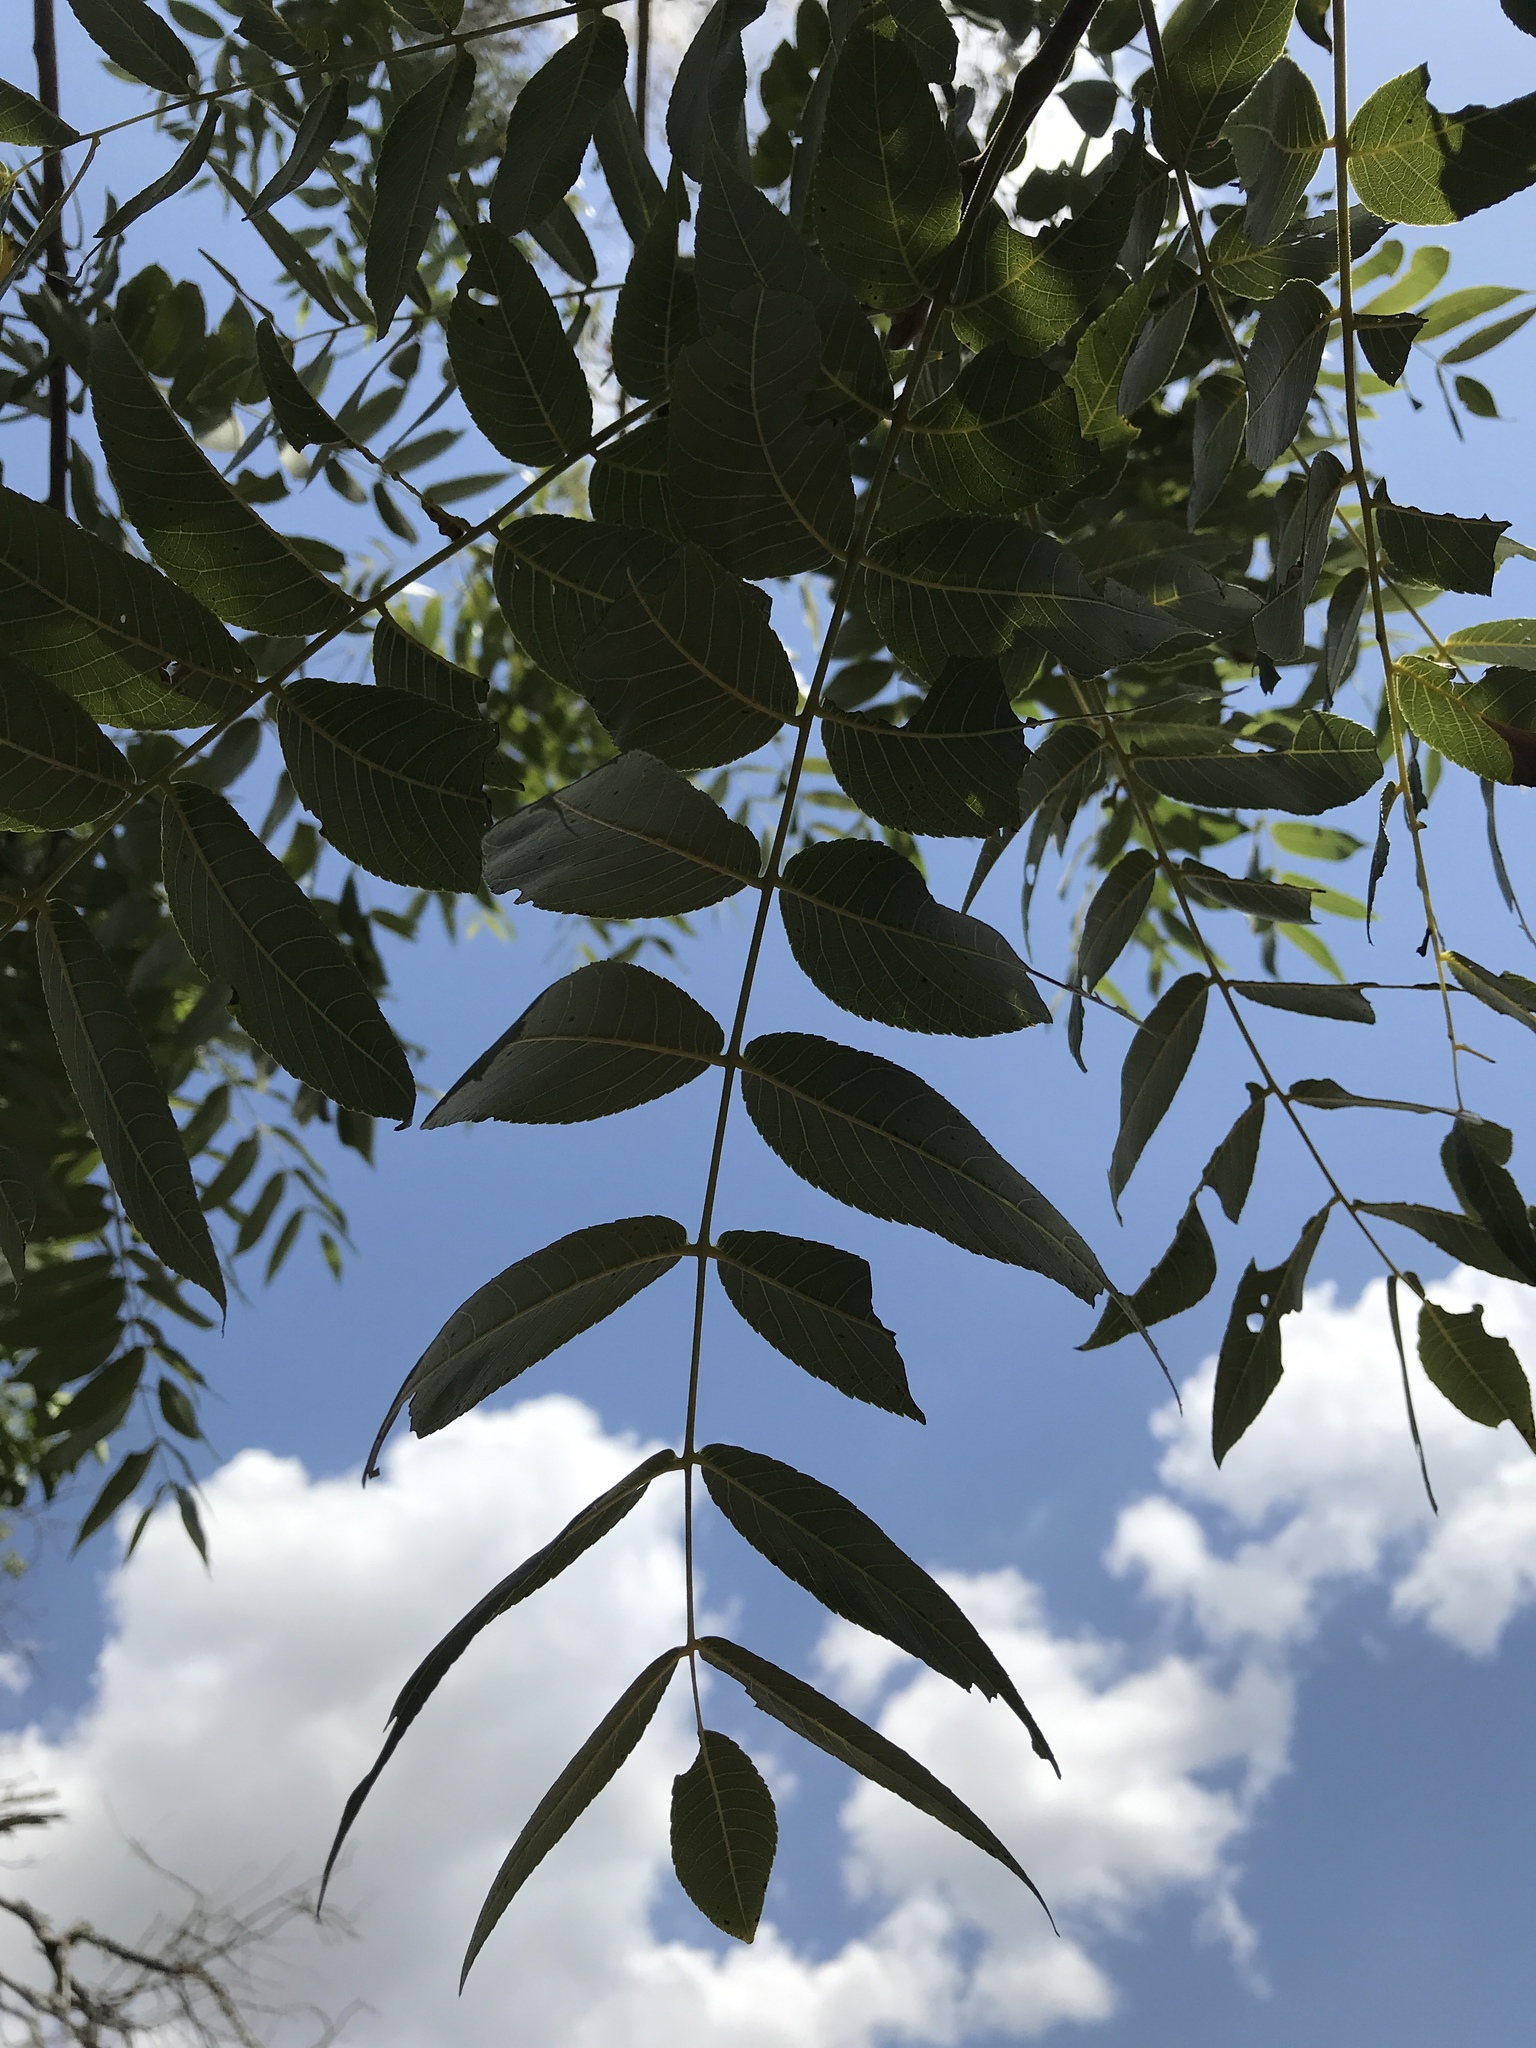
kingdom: Plantae
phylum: Tracheophyta
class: Magnoliopsida
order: Fagales
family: Juglandaceae
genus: Juglans
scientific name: Juglans nigra
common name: Black walnut
